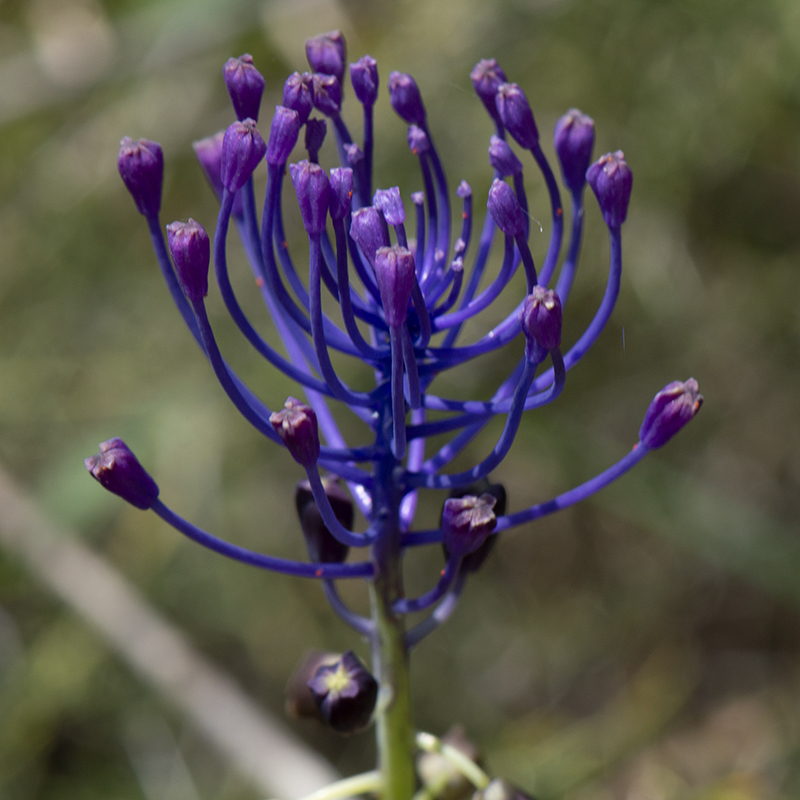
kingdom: Plantae
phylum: Tracheophyta
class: Liliopsida
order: Asparagales
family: Asparagaceae
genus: Muscari
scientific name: Muscari comosum
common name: Tassel hyacinth
